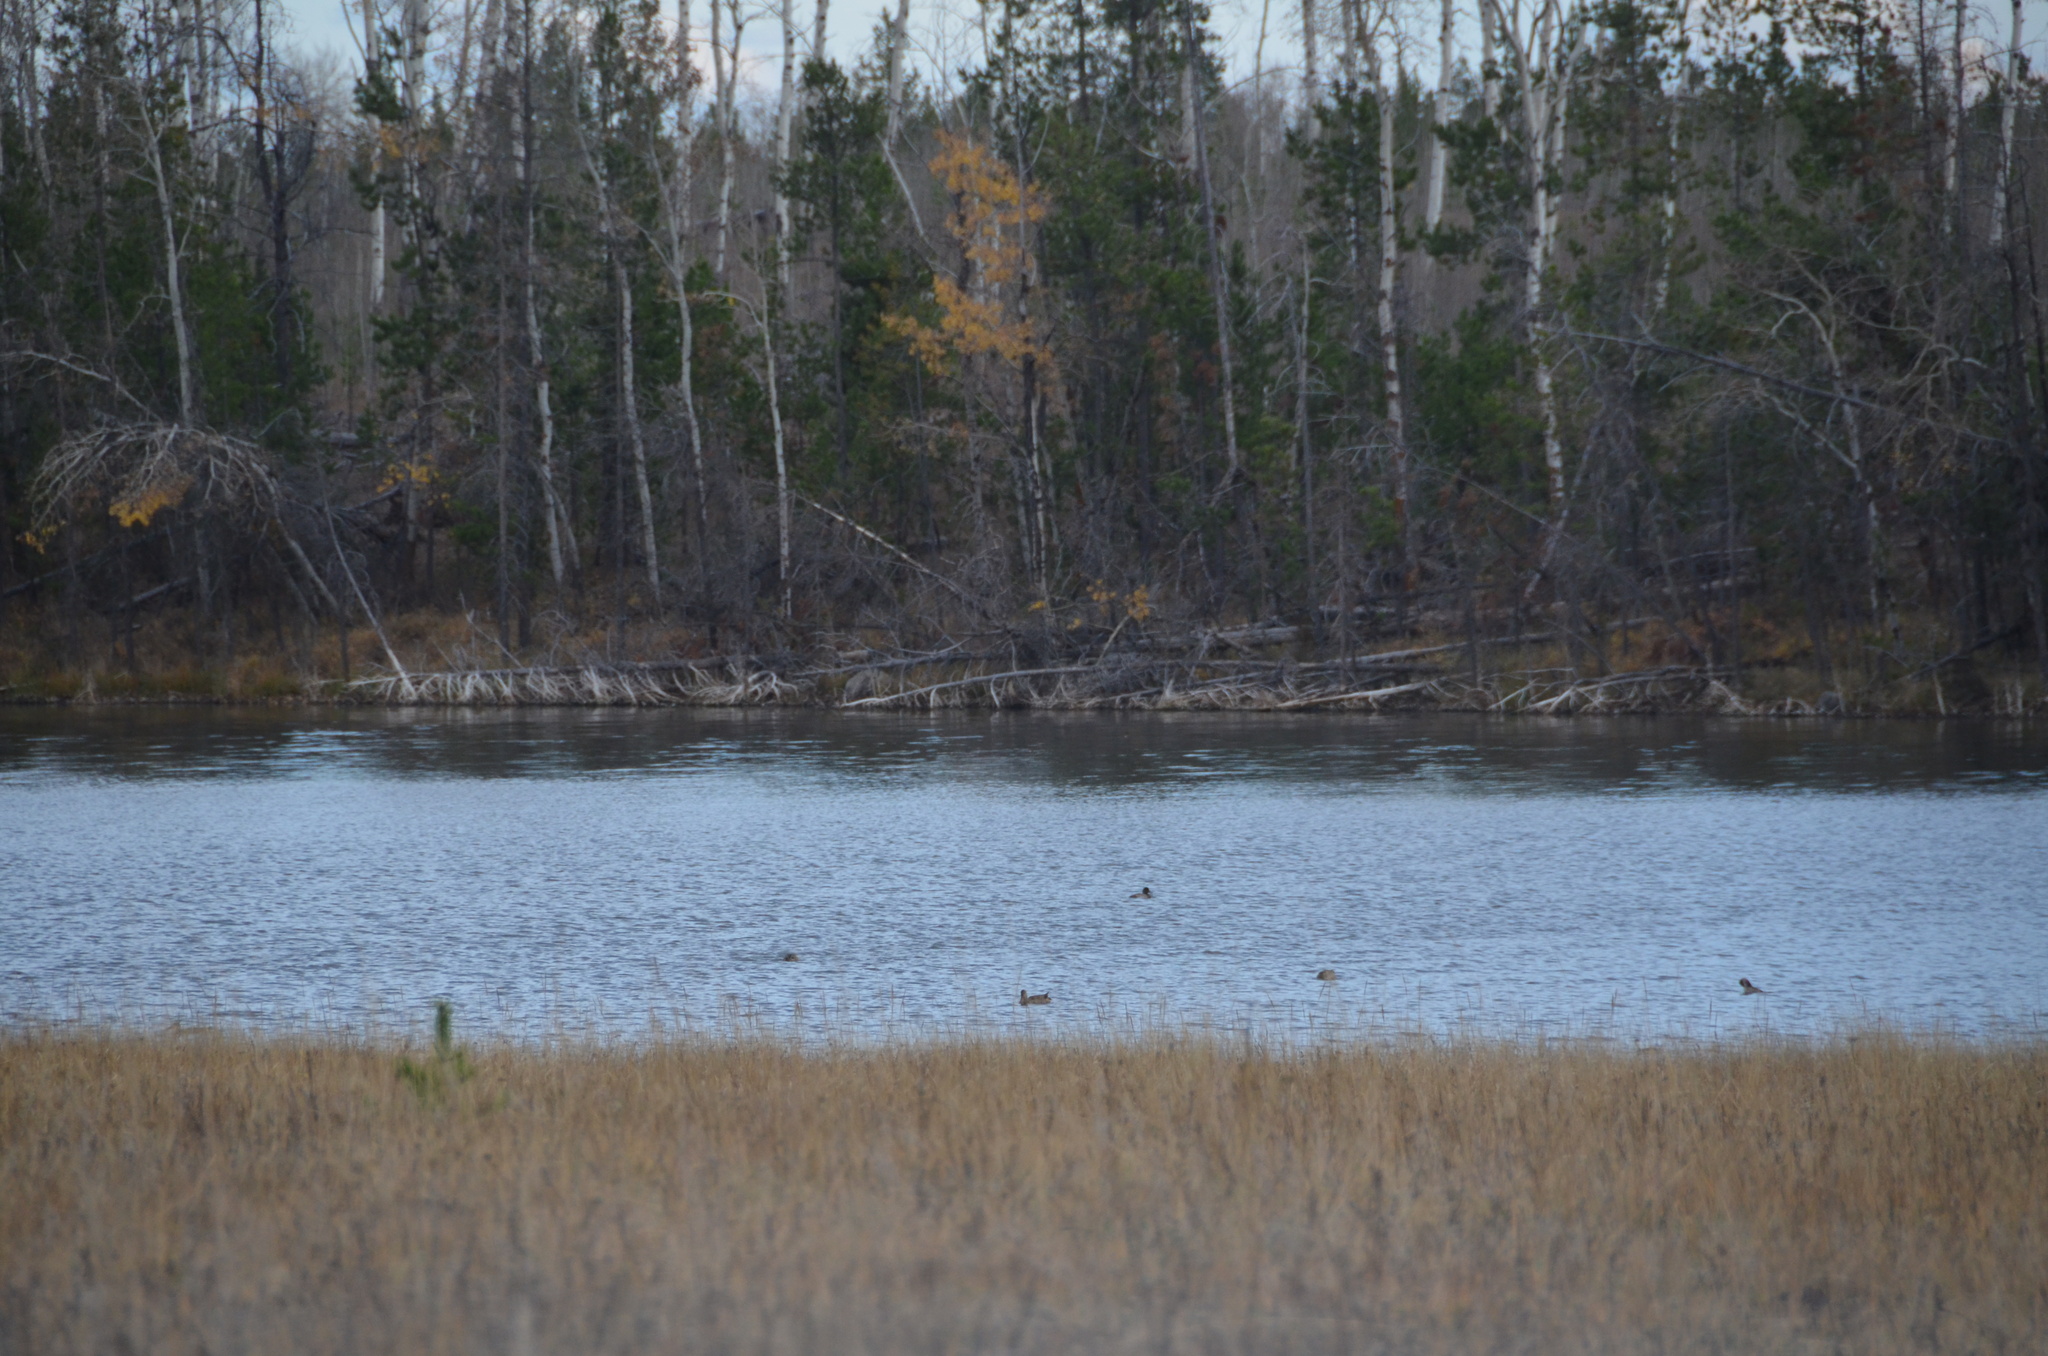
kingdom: Animalia
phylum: Chordata
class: Aves
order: Anseriformes
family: Anatidae
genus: Aythya
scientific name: Aythya affinis
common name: Lesser scaup
